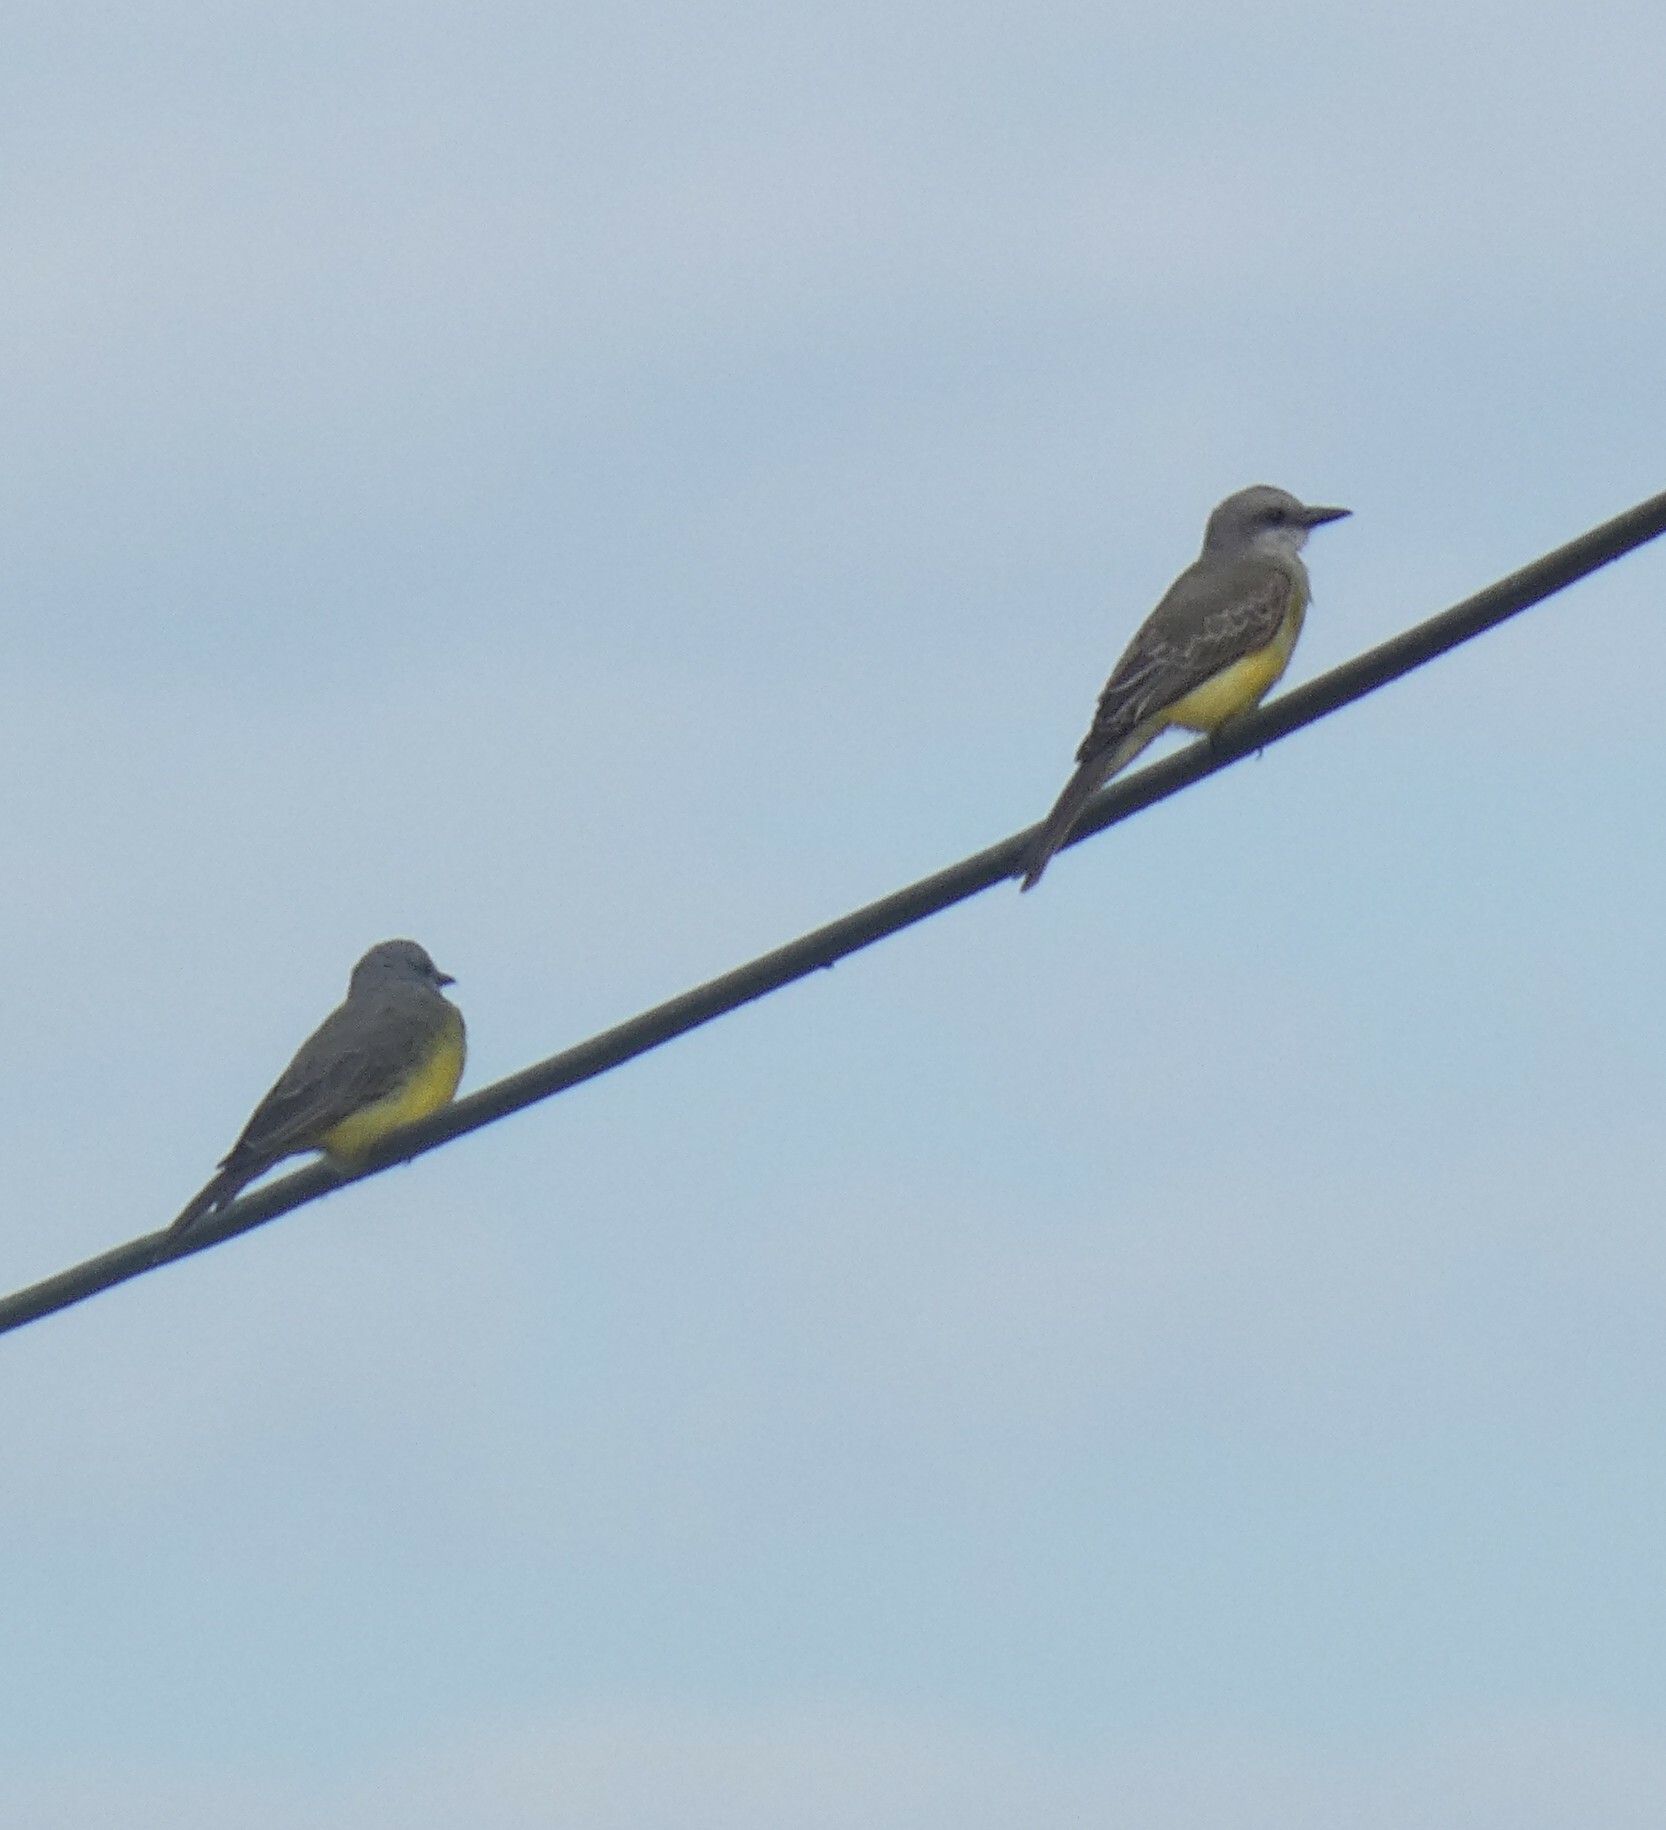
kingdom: Animalia
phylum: Chordata
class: Aves
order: Passeriformes
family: Tyrannidae
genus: Tyrannus
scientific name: Tyrannus melancholicus
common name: Tropical kingbird
